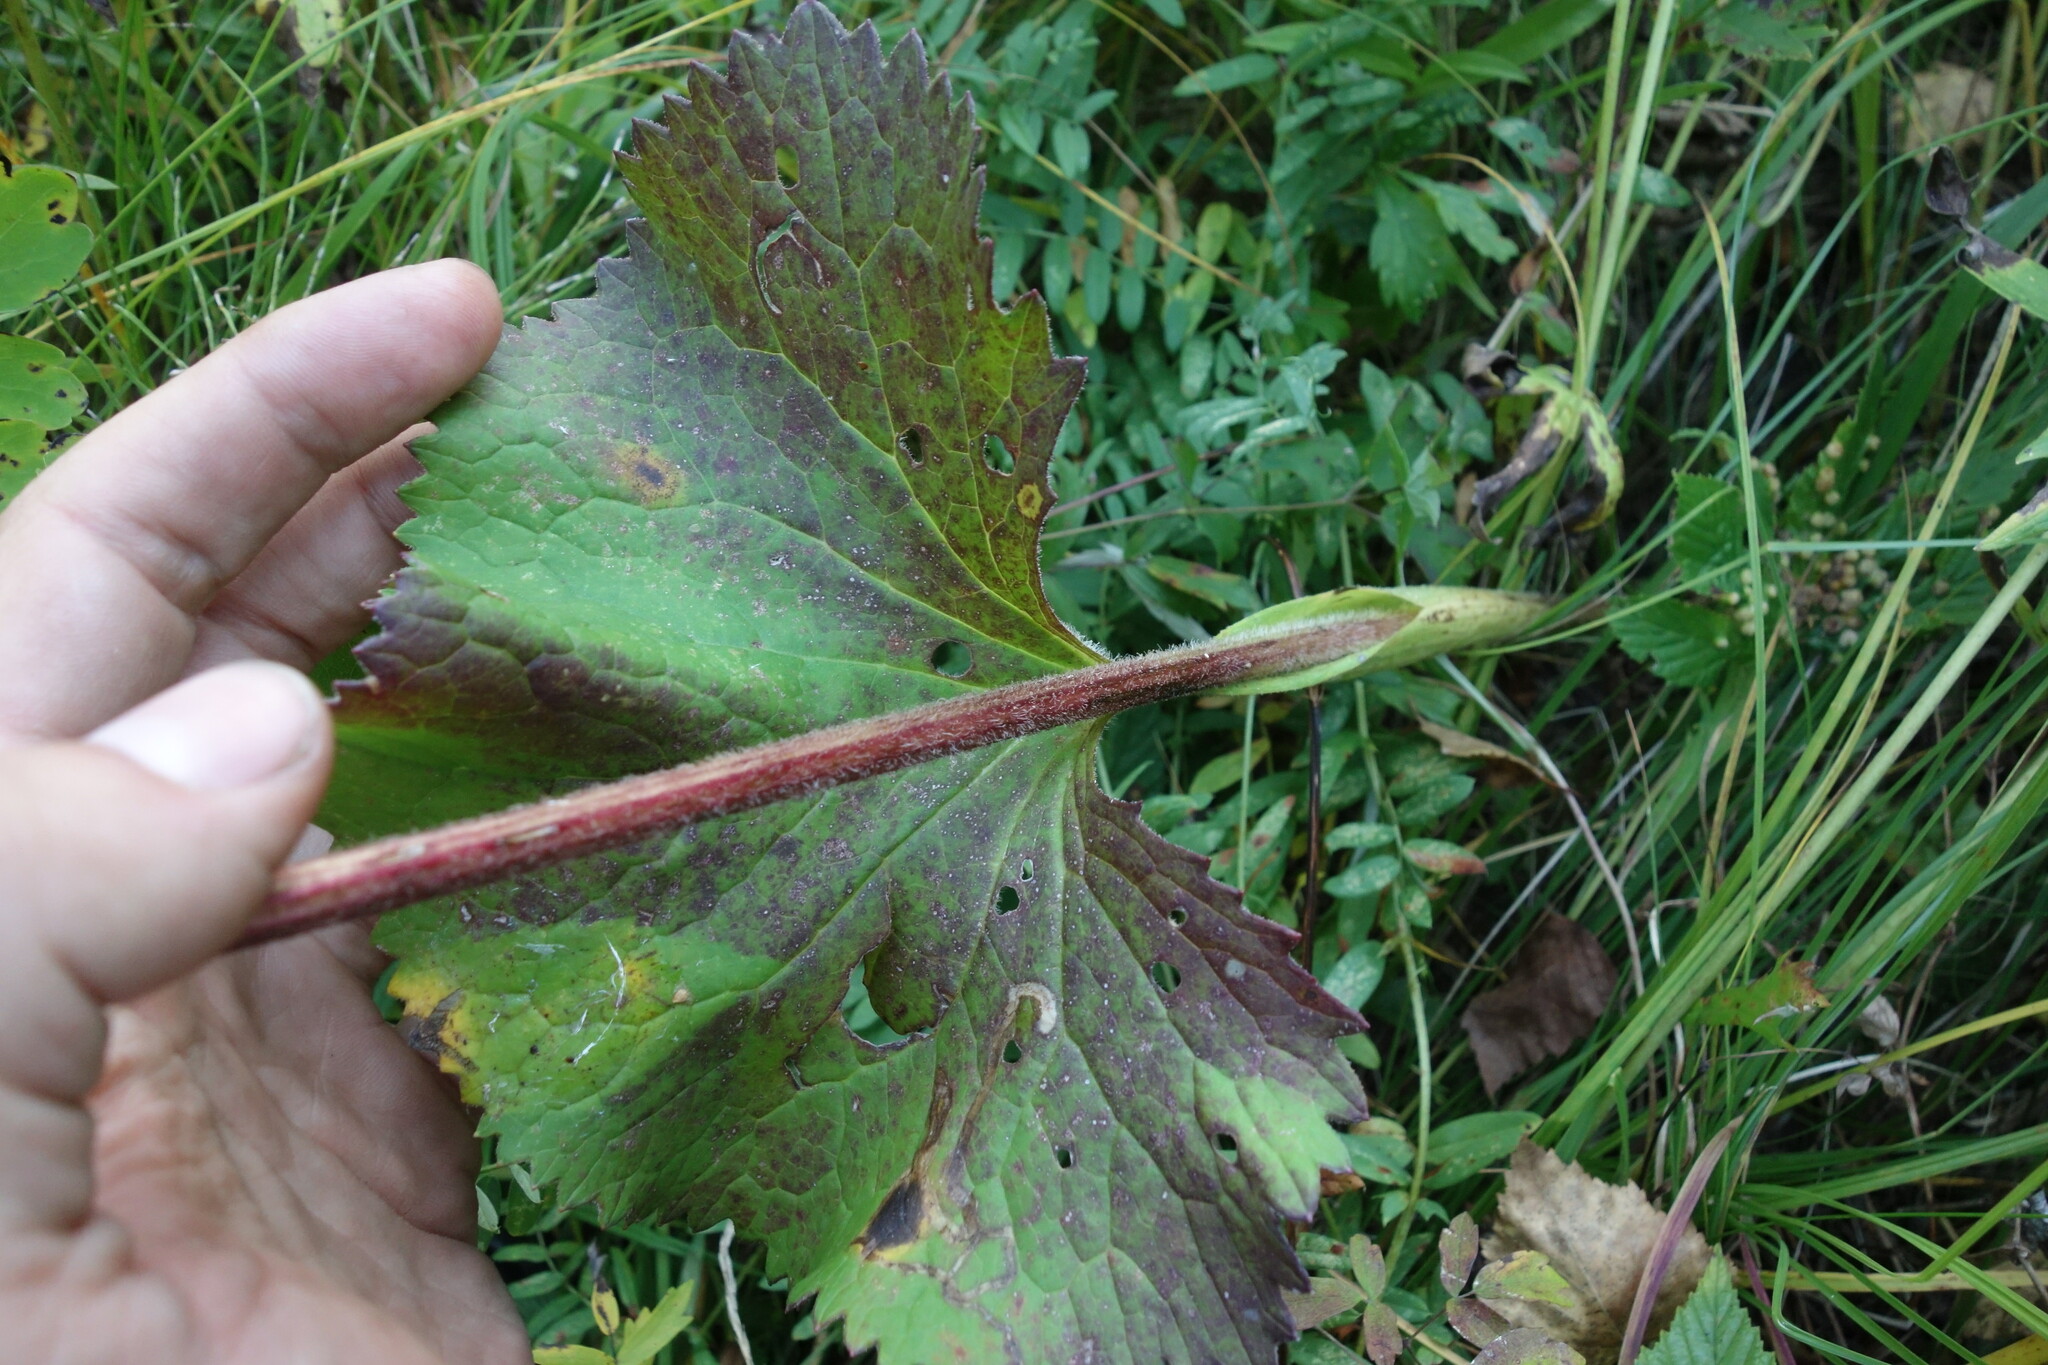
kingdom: Plantae
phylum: Tracheophyta
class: Magnoliopsida
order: Asterales
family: Asteraceae
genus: Ligularia
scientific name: Ligularia fischeri
